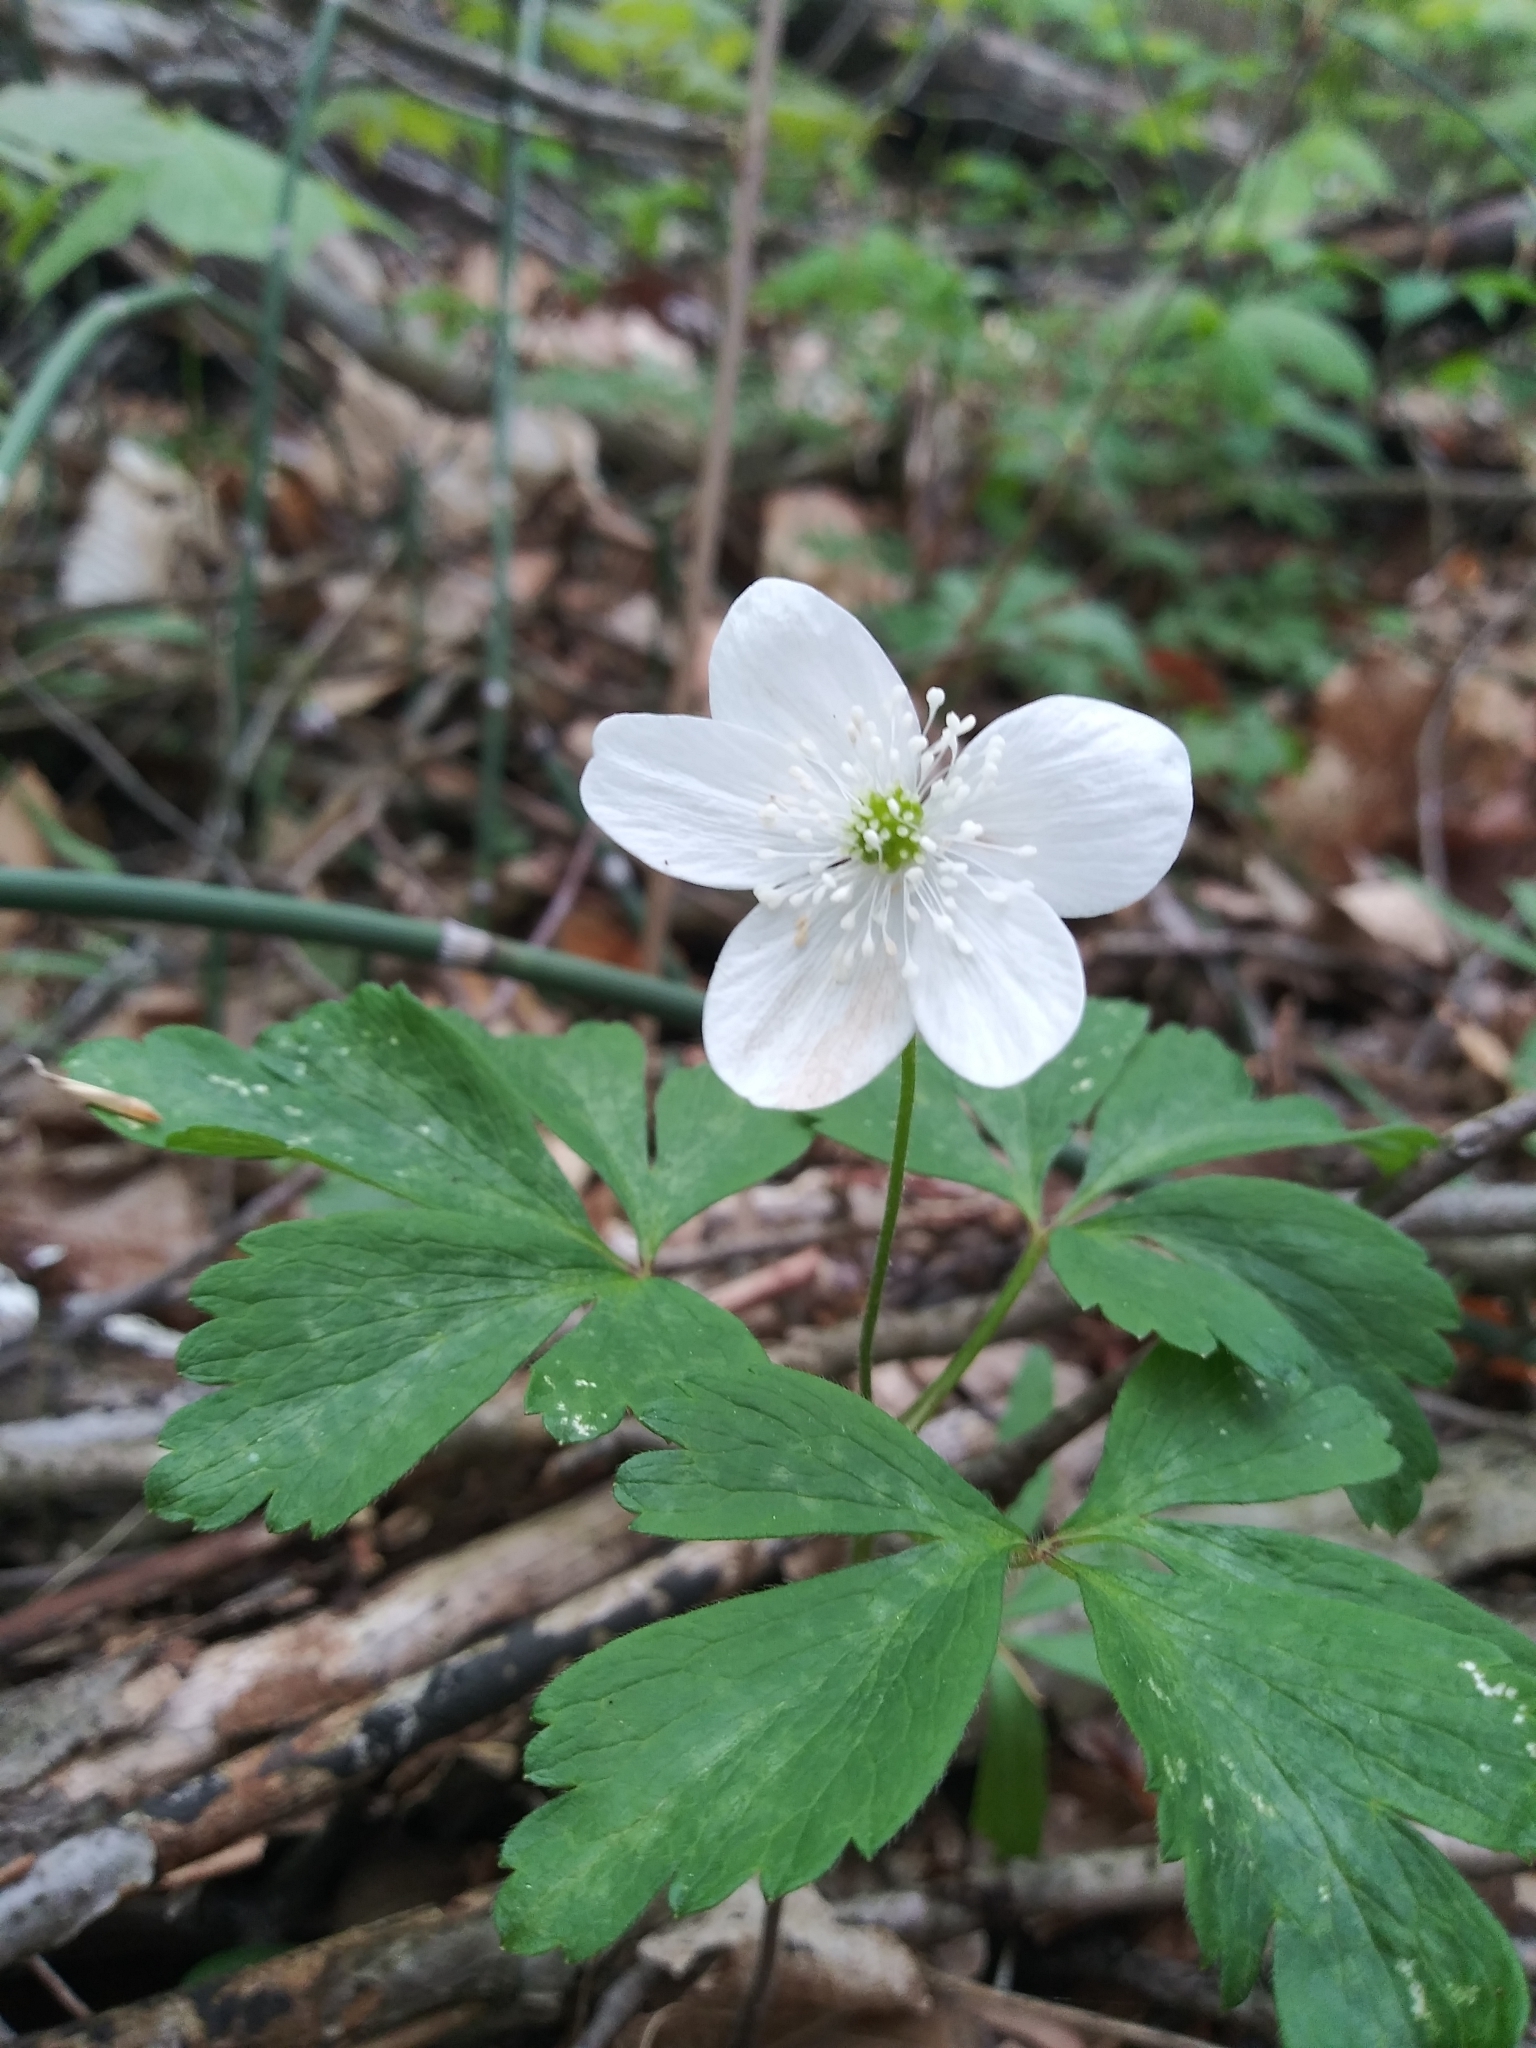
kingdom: Plantae
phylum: Tracheophyta
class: Magnoliopsida
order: Ranunculales
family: Ranunculaceae
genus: Anemone
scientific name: Anemone quinquefolia
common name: Wood anemone
